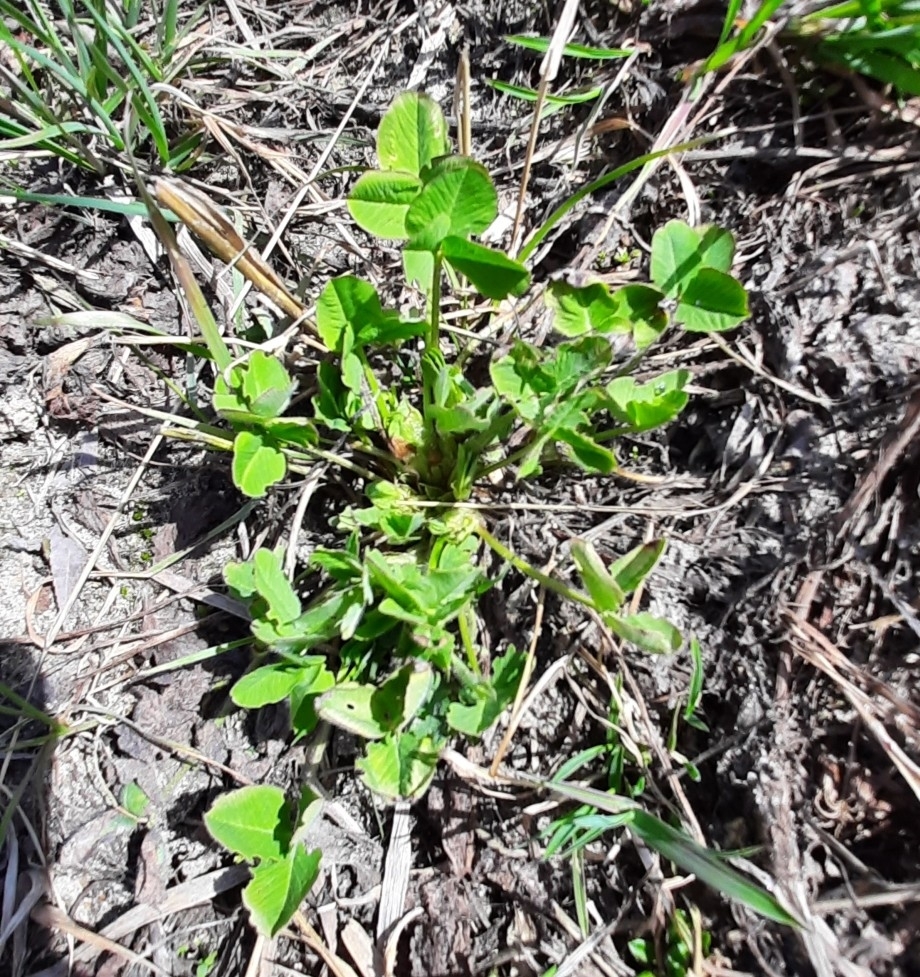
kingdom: Plantae
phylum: Tracheophyta
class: Magnoliopsida
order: Fabales
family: Fabaceae
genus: Trifolium
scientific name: Trifolium repens
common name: White clover
